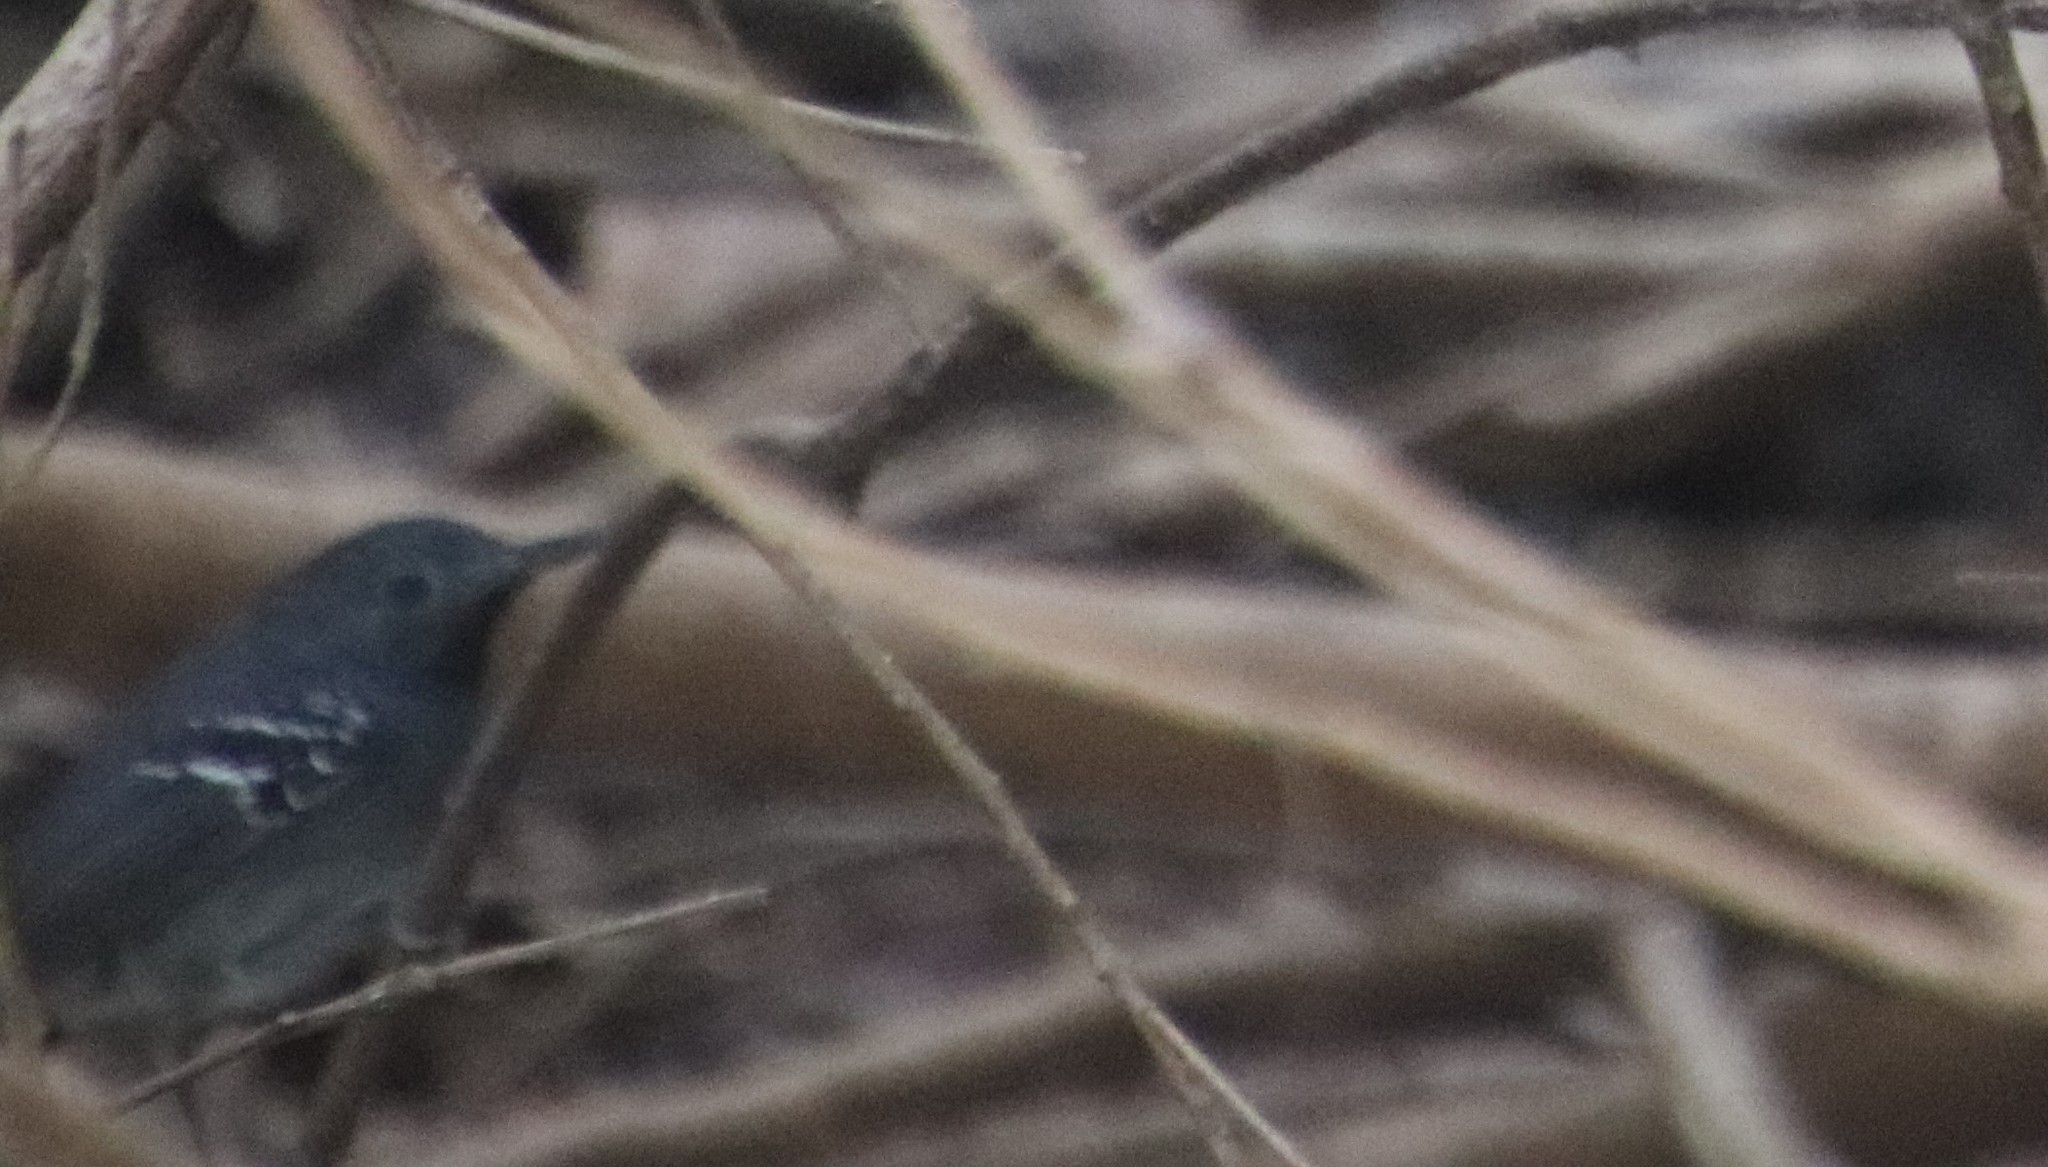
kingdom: Animalia
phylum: Chordata
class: Aves
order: Passeriformes
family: Thamnophilidae
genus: Hypocnemoides
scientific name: Hypocnemoides maculicauda
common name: Band-tailed antbird
